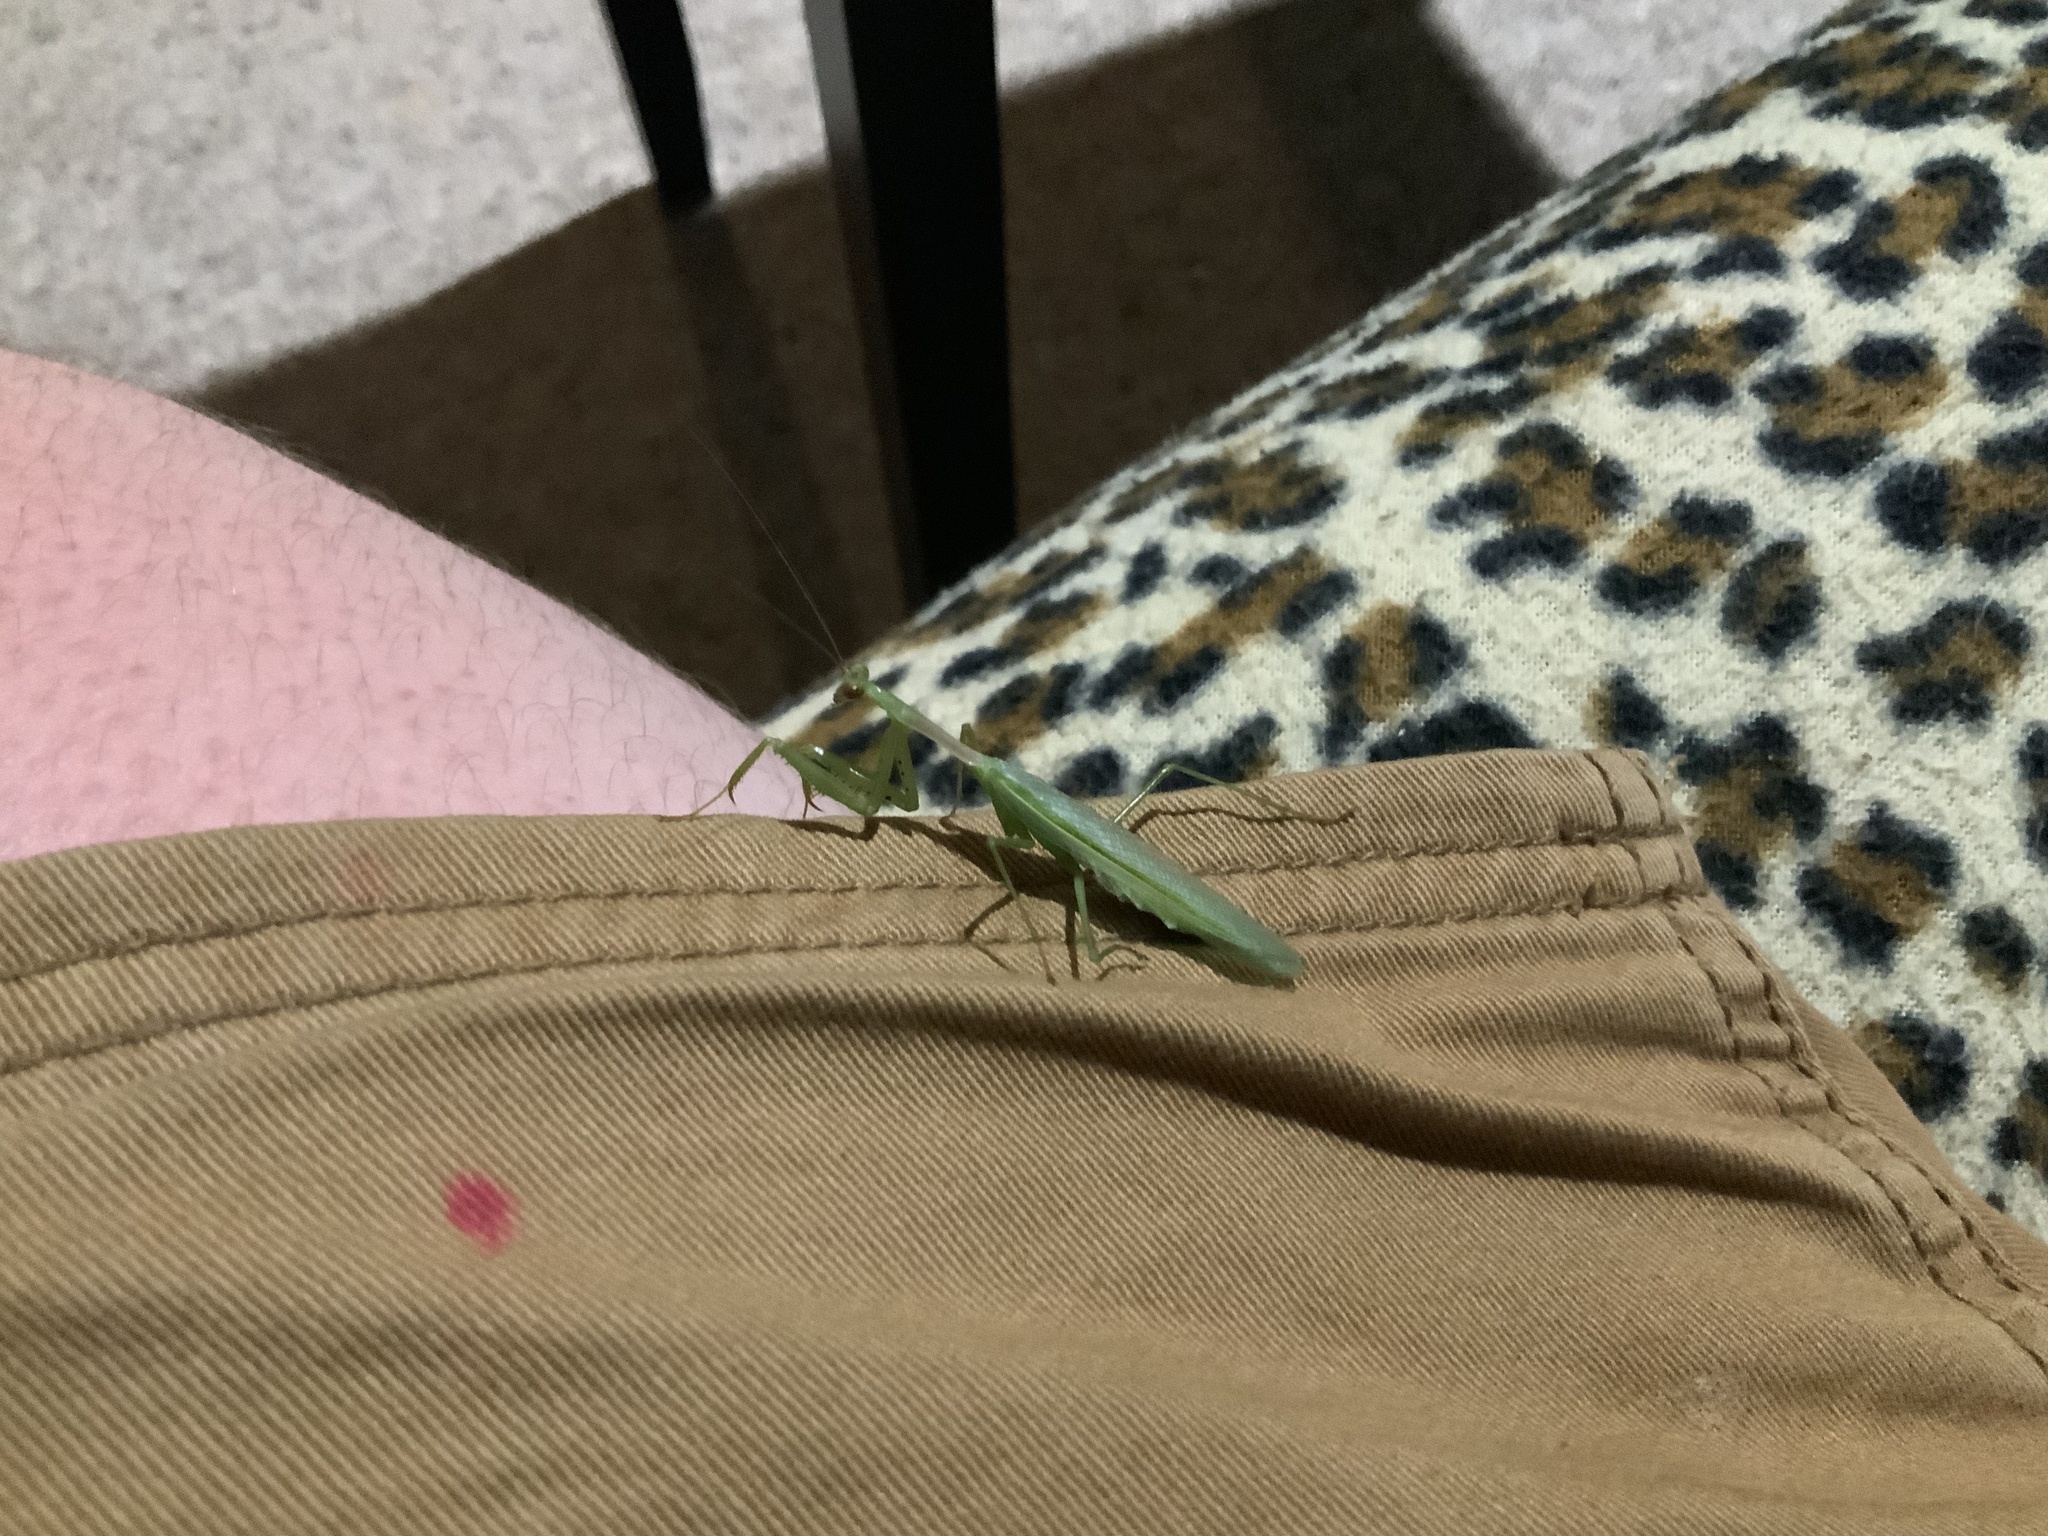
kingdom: Animalia
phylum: Arthropoda
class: Insecta
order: Mantodea
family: Miomantidae
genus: Miomantis
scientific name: Miomantis caffra
